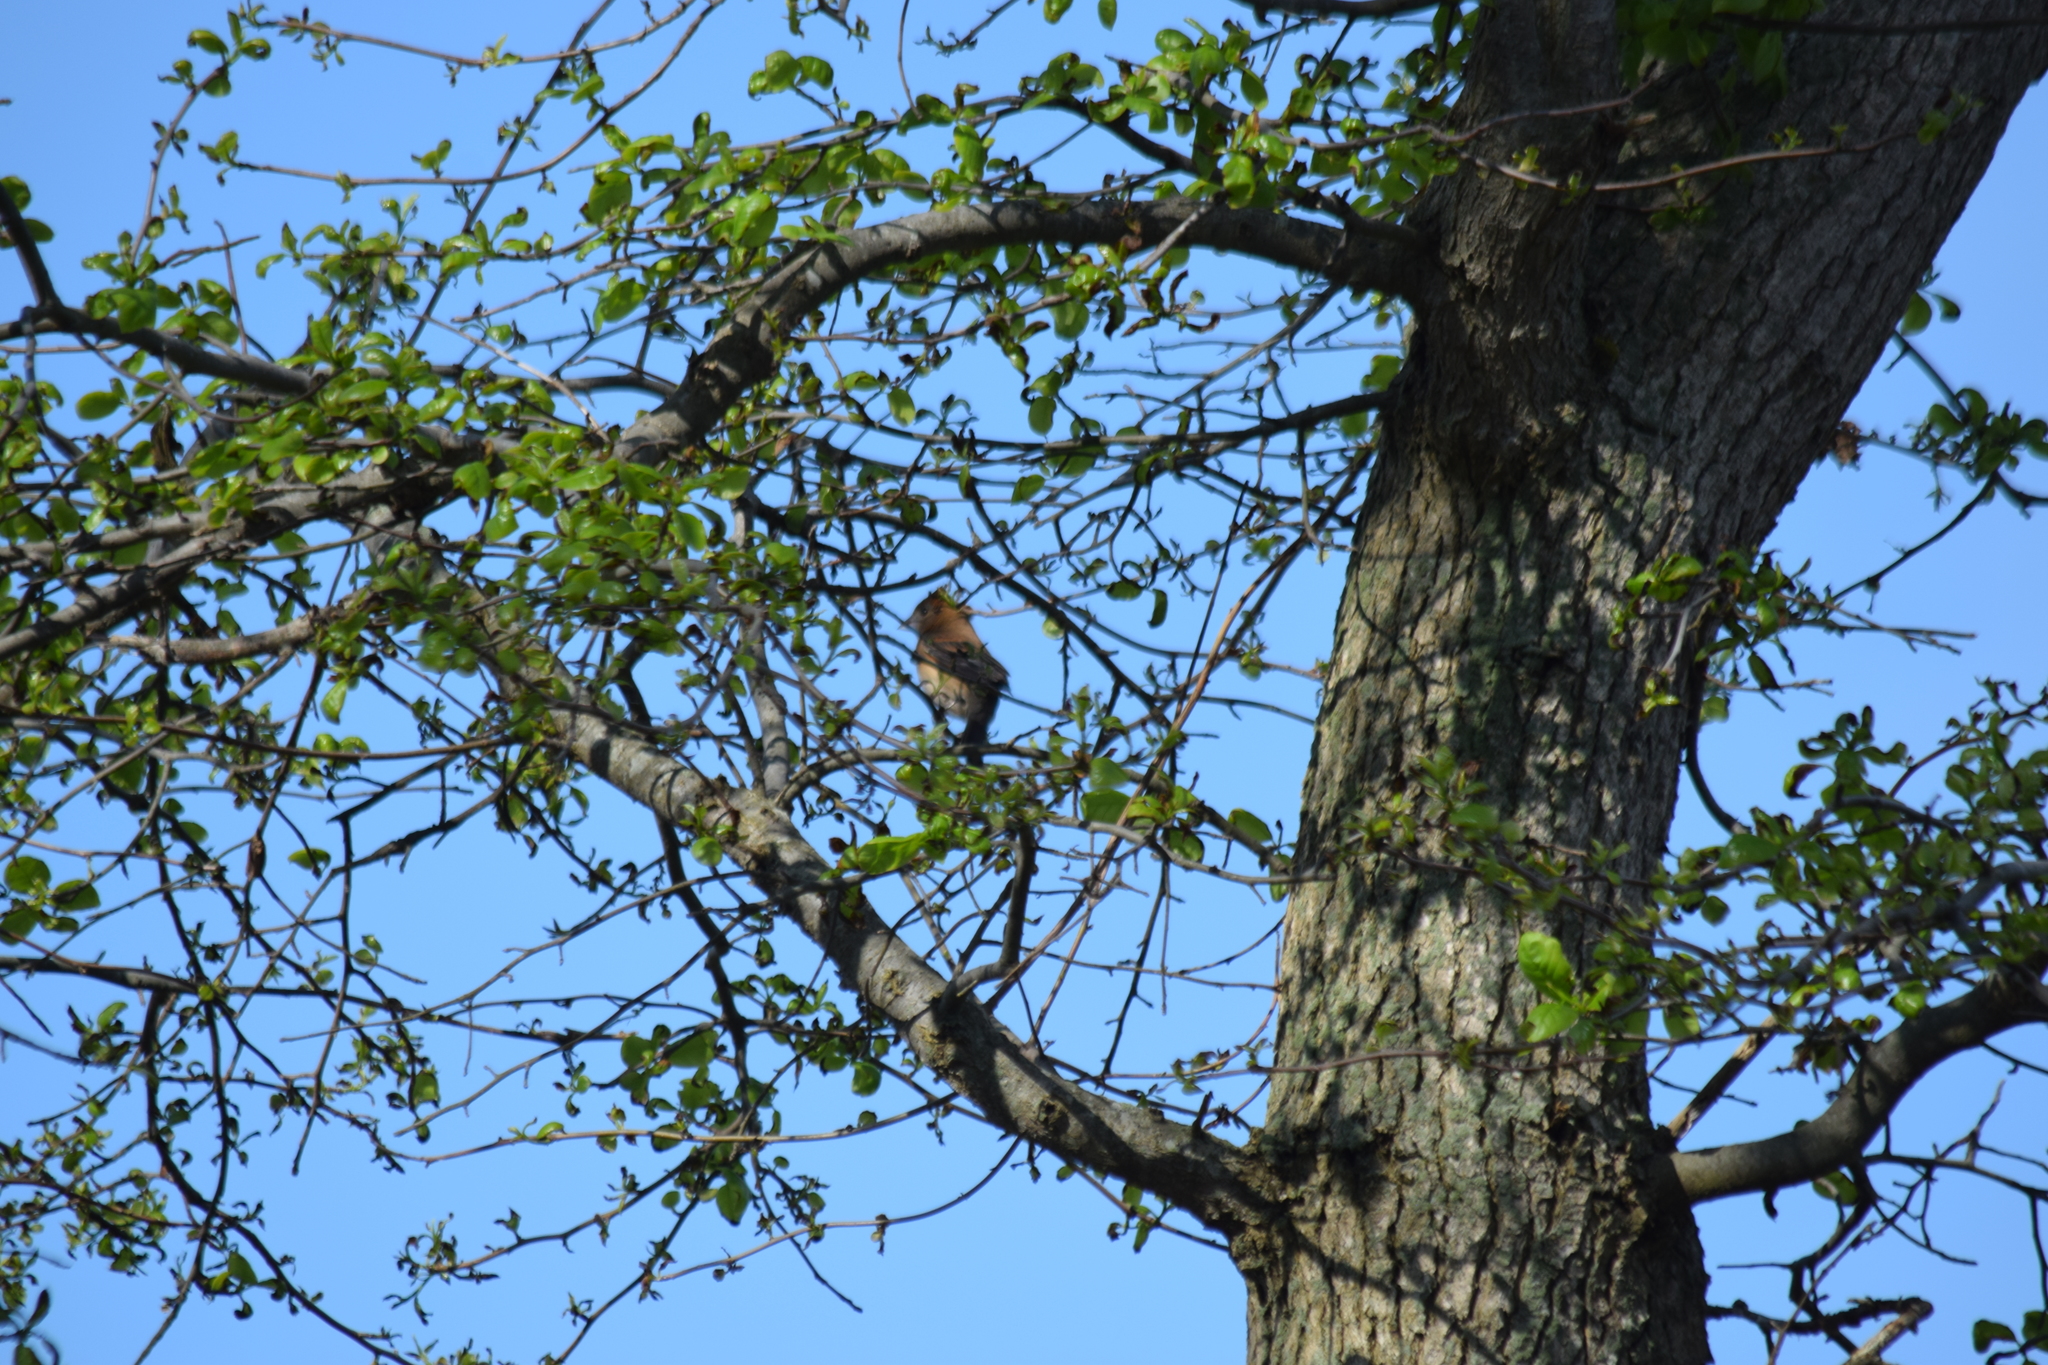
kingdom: Animalia
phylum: Chordata
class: Aves
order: Passeriformes
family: Cardinalidae
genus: Passerina
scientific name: Passerina caerulea
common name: Blue grosbeak
